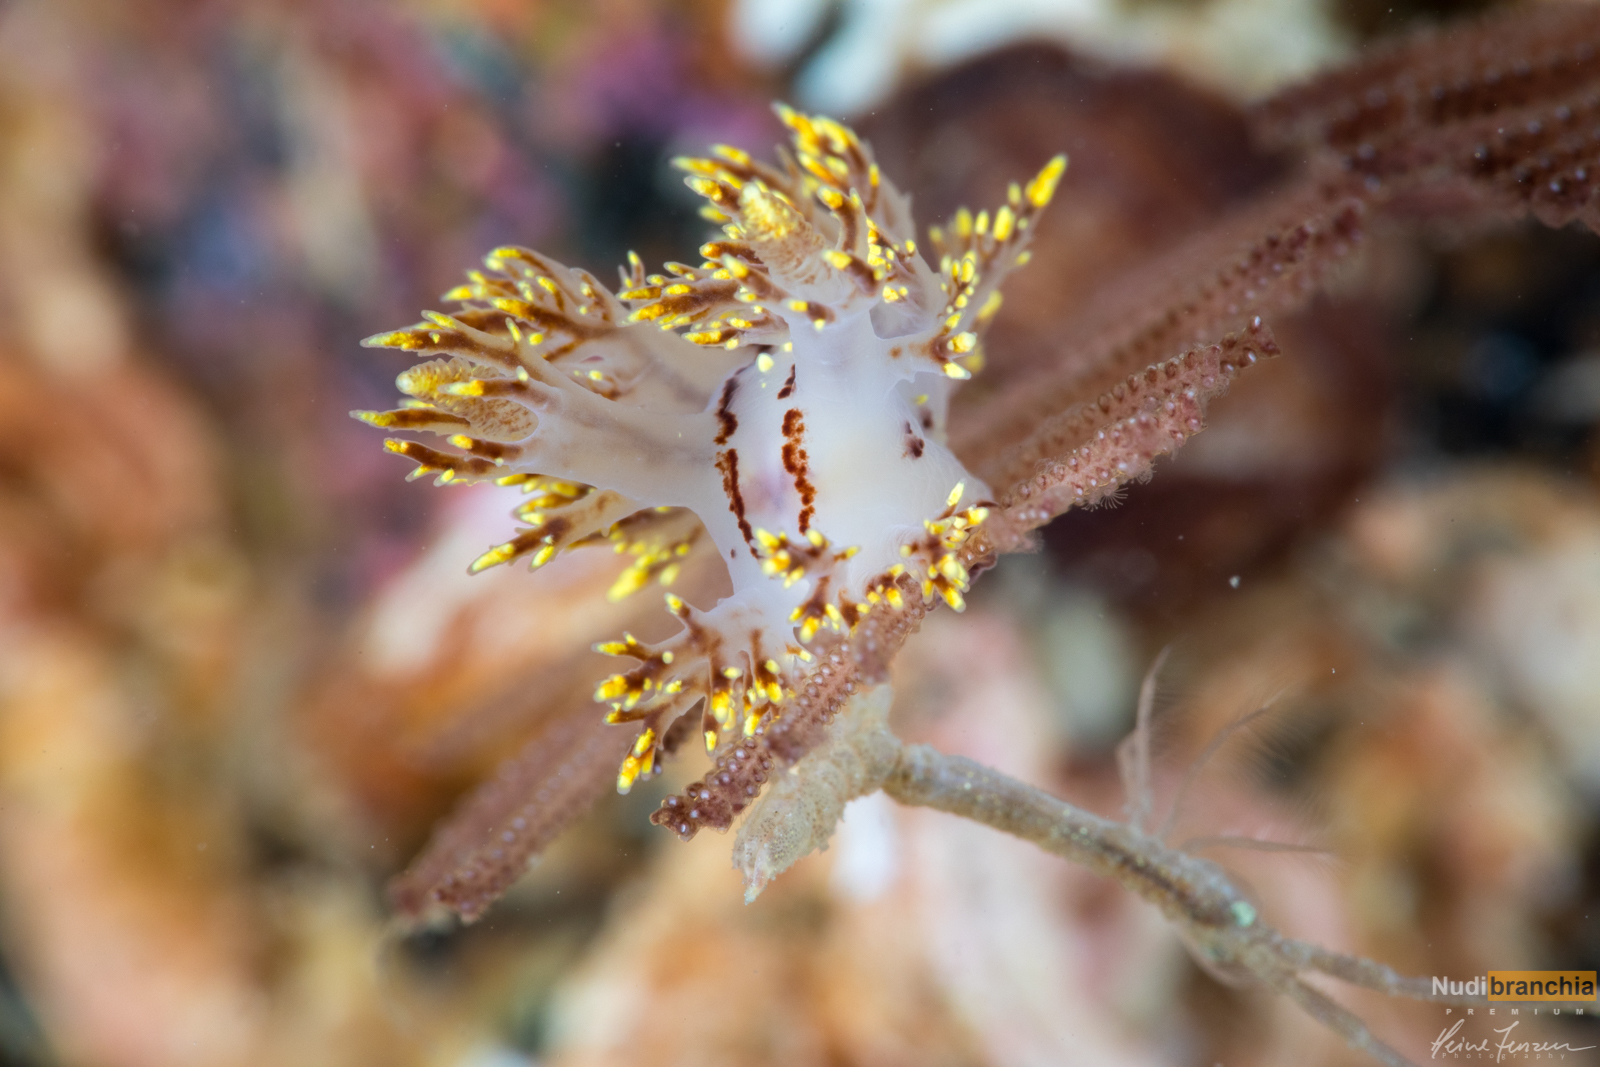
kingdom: Animalia
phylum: Mollusca
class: Gastropoda
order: Nudibranchia
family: Dendronotidae
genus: Dendronotus
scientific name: Dendronotus yrjargul
